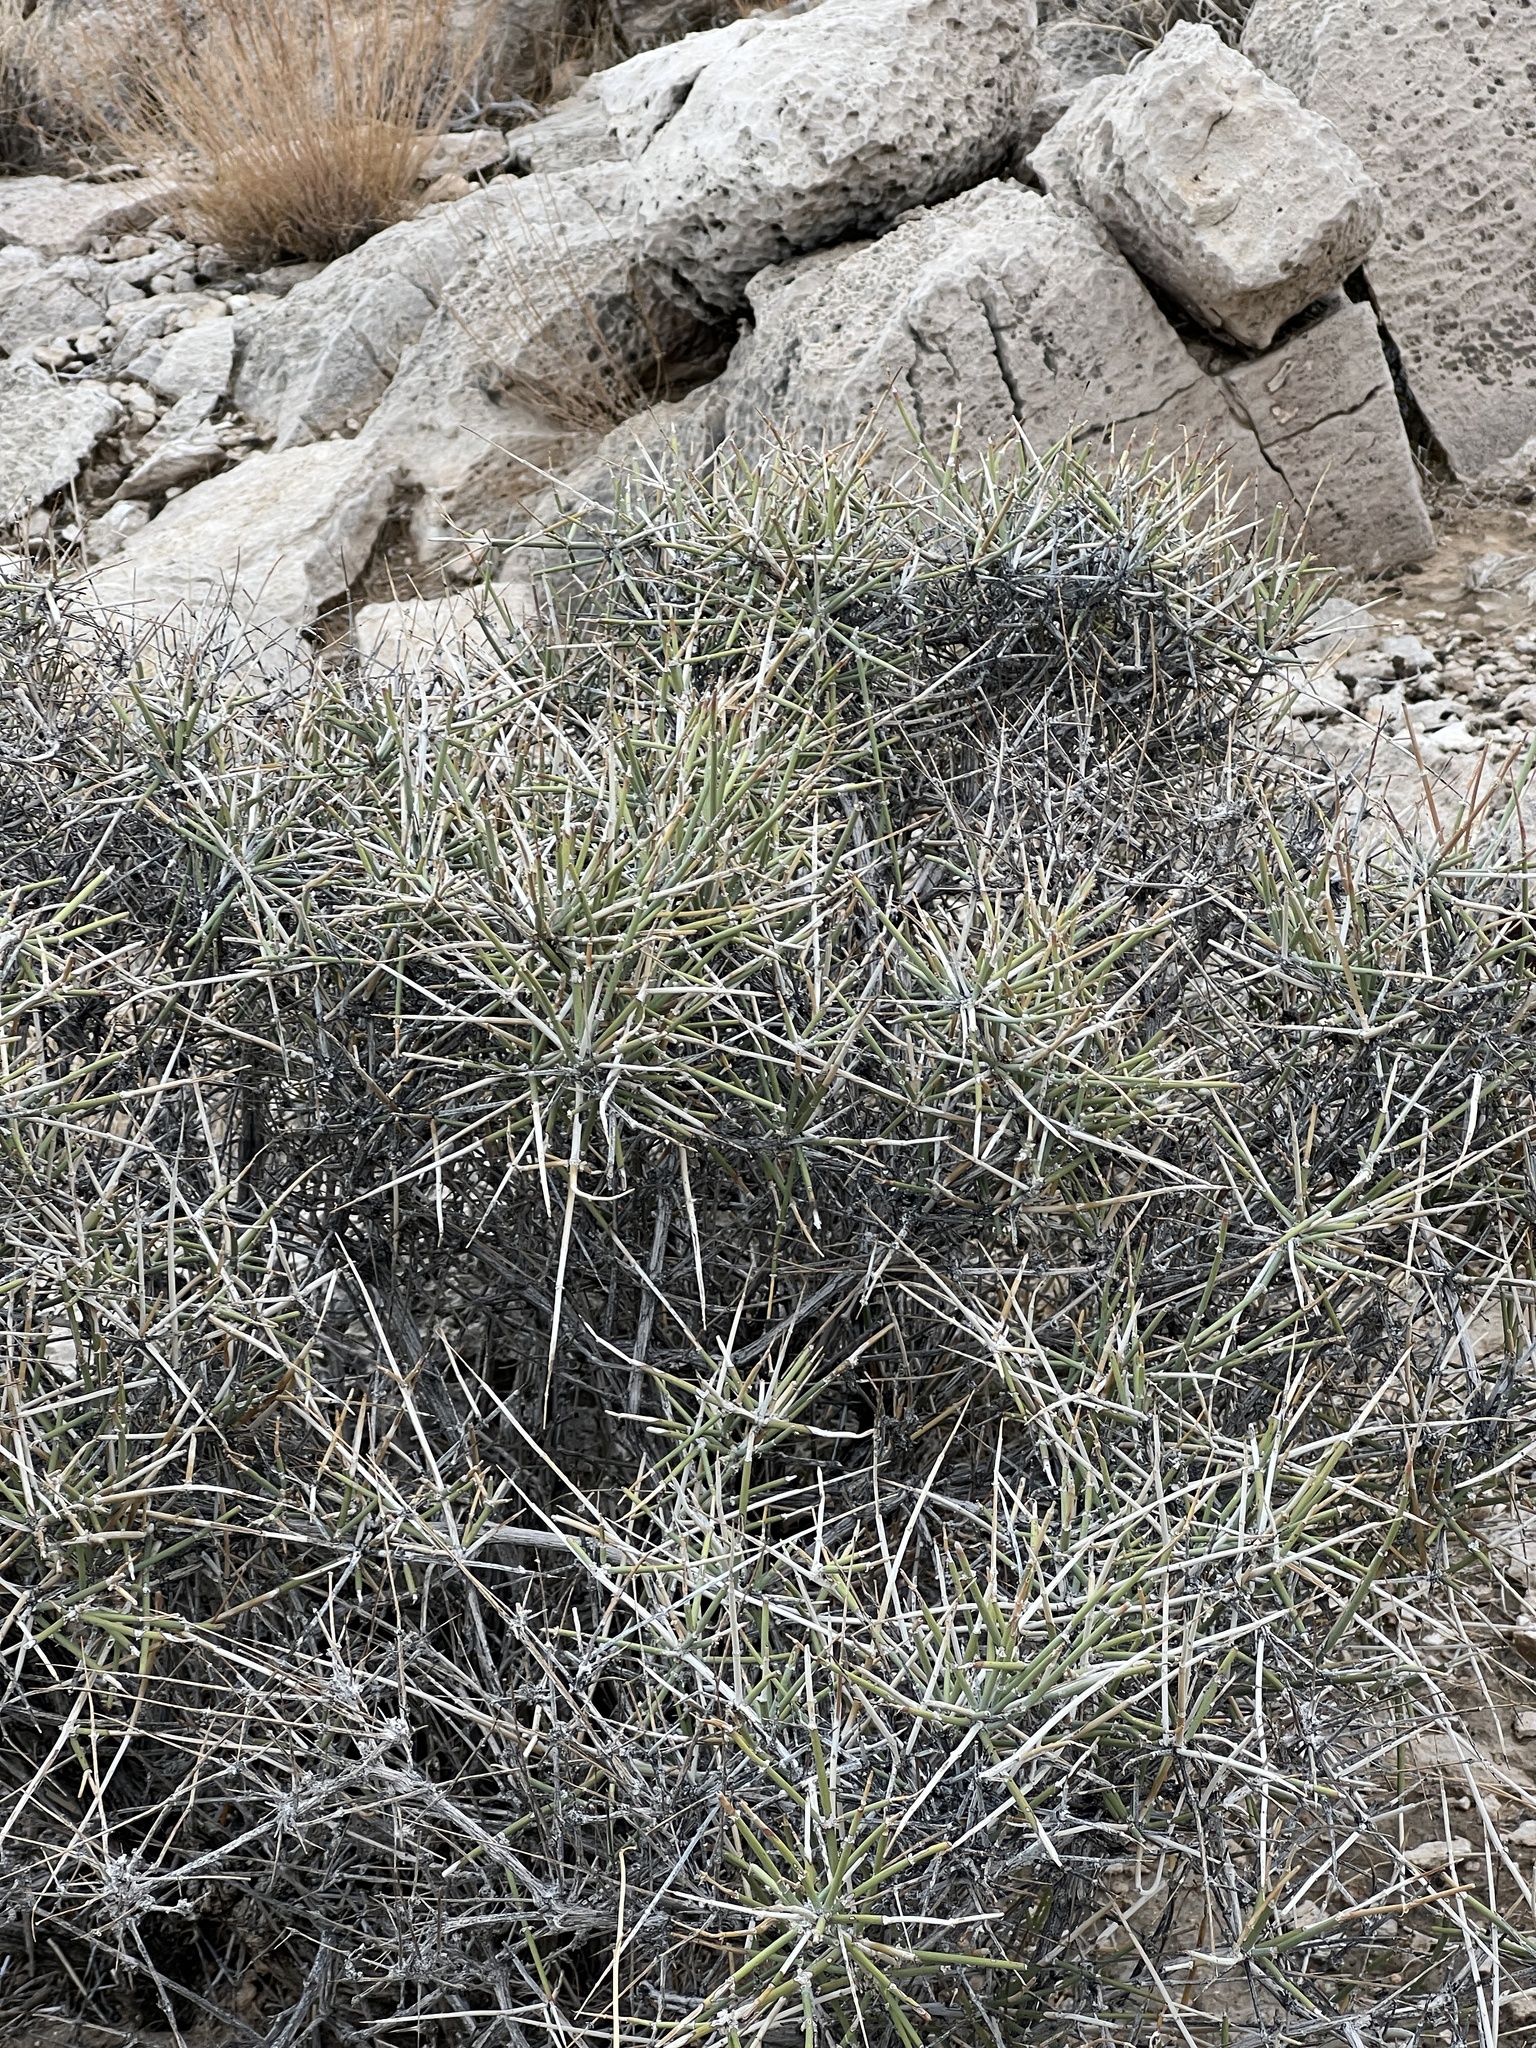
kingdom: Plantae
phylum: Tracheophyta
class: Gnetopsida
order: Ephedrales
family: Ephedraceae
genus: Ephedra
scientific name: Ephedra nevadensis
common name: Gray ephedra
